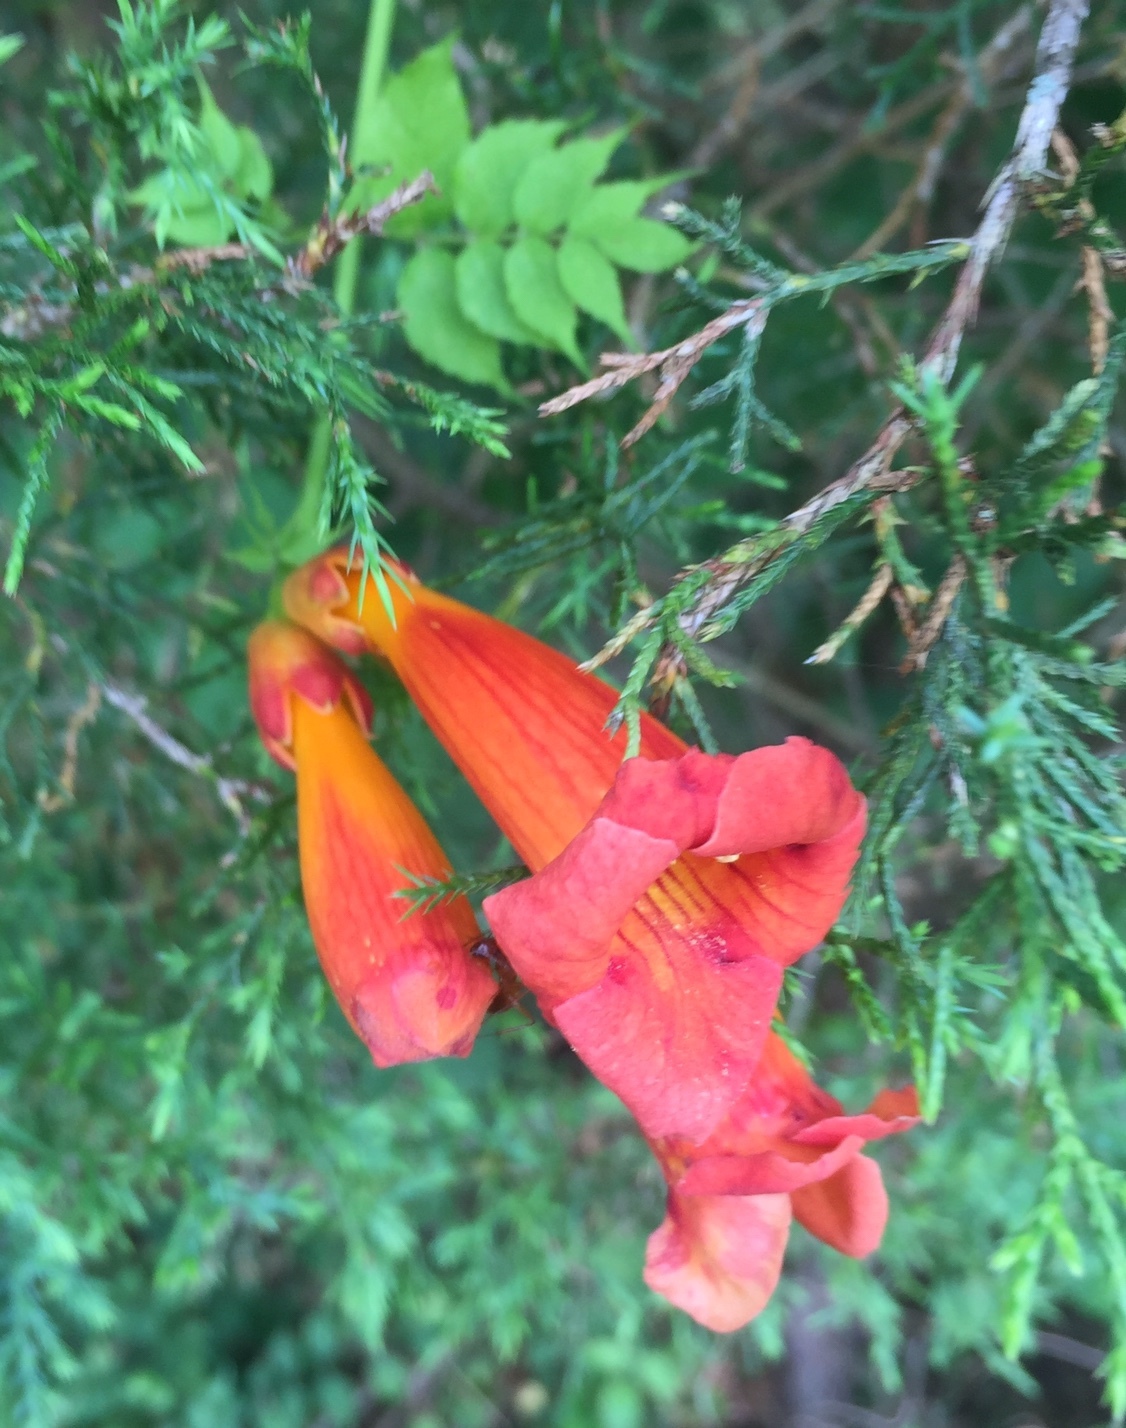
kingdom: Plantae
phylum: Tracheophyta
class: Magnoliopsida
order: Lamiales
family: Bignoniaceae
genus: Campsis
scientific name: Campsis radicans
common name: Trumpet-creeper
